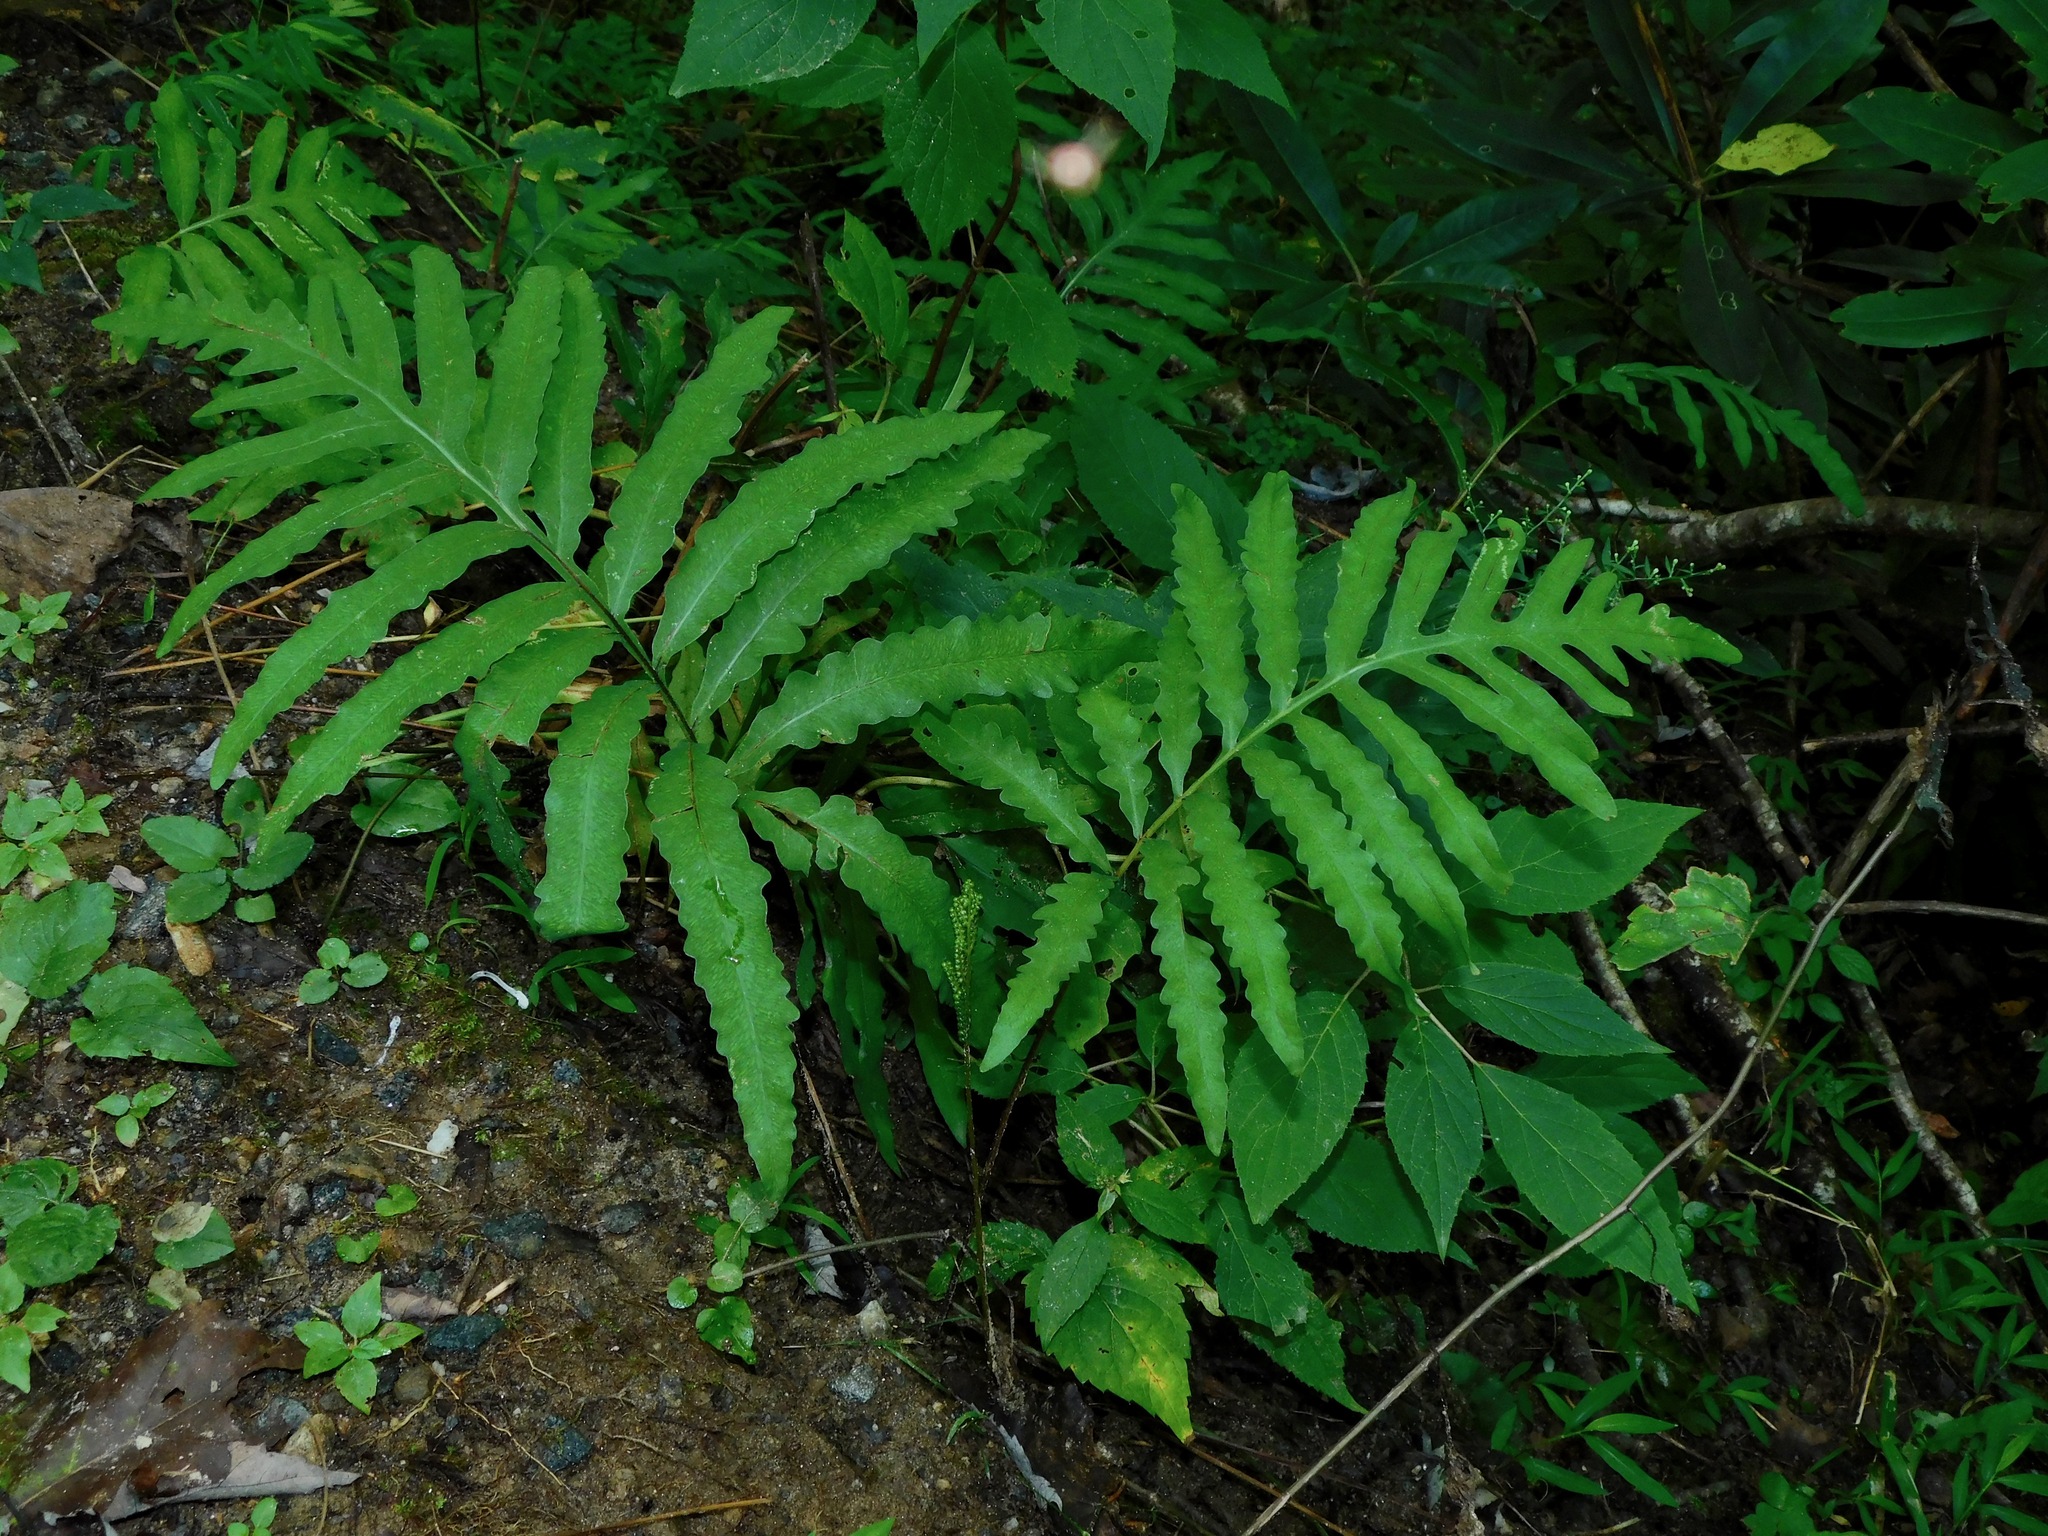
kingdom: Plantae
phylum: Tracheophyta
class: Polypodiopsida
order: Polypodiales
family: Onocleaceae
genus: Onoclea
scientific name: Onoclea sensibilis
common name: Sensitive fern
